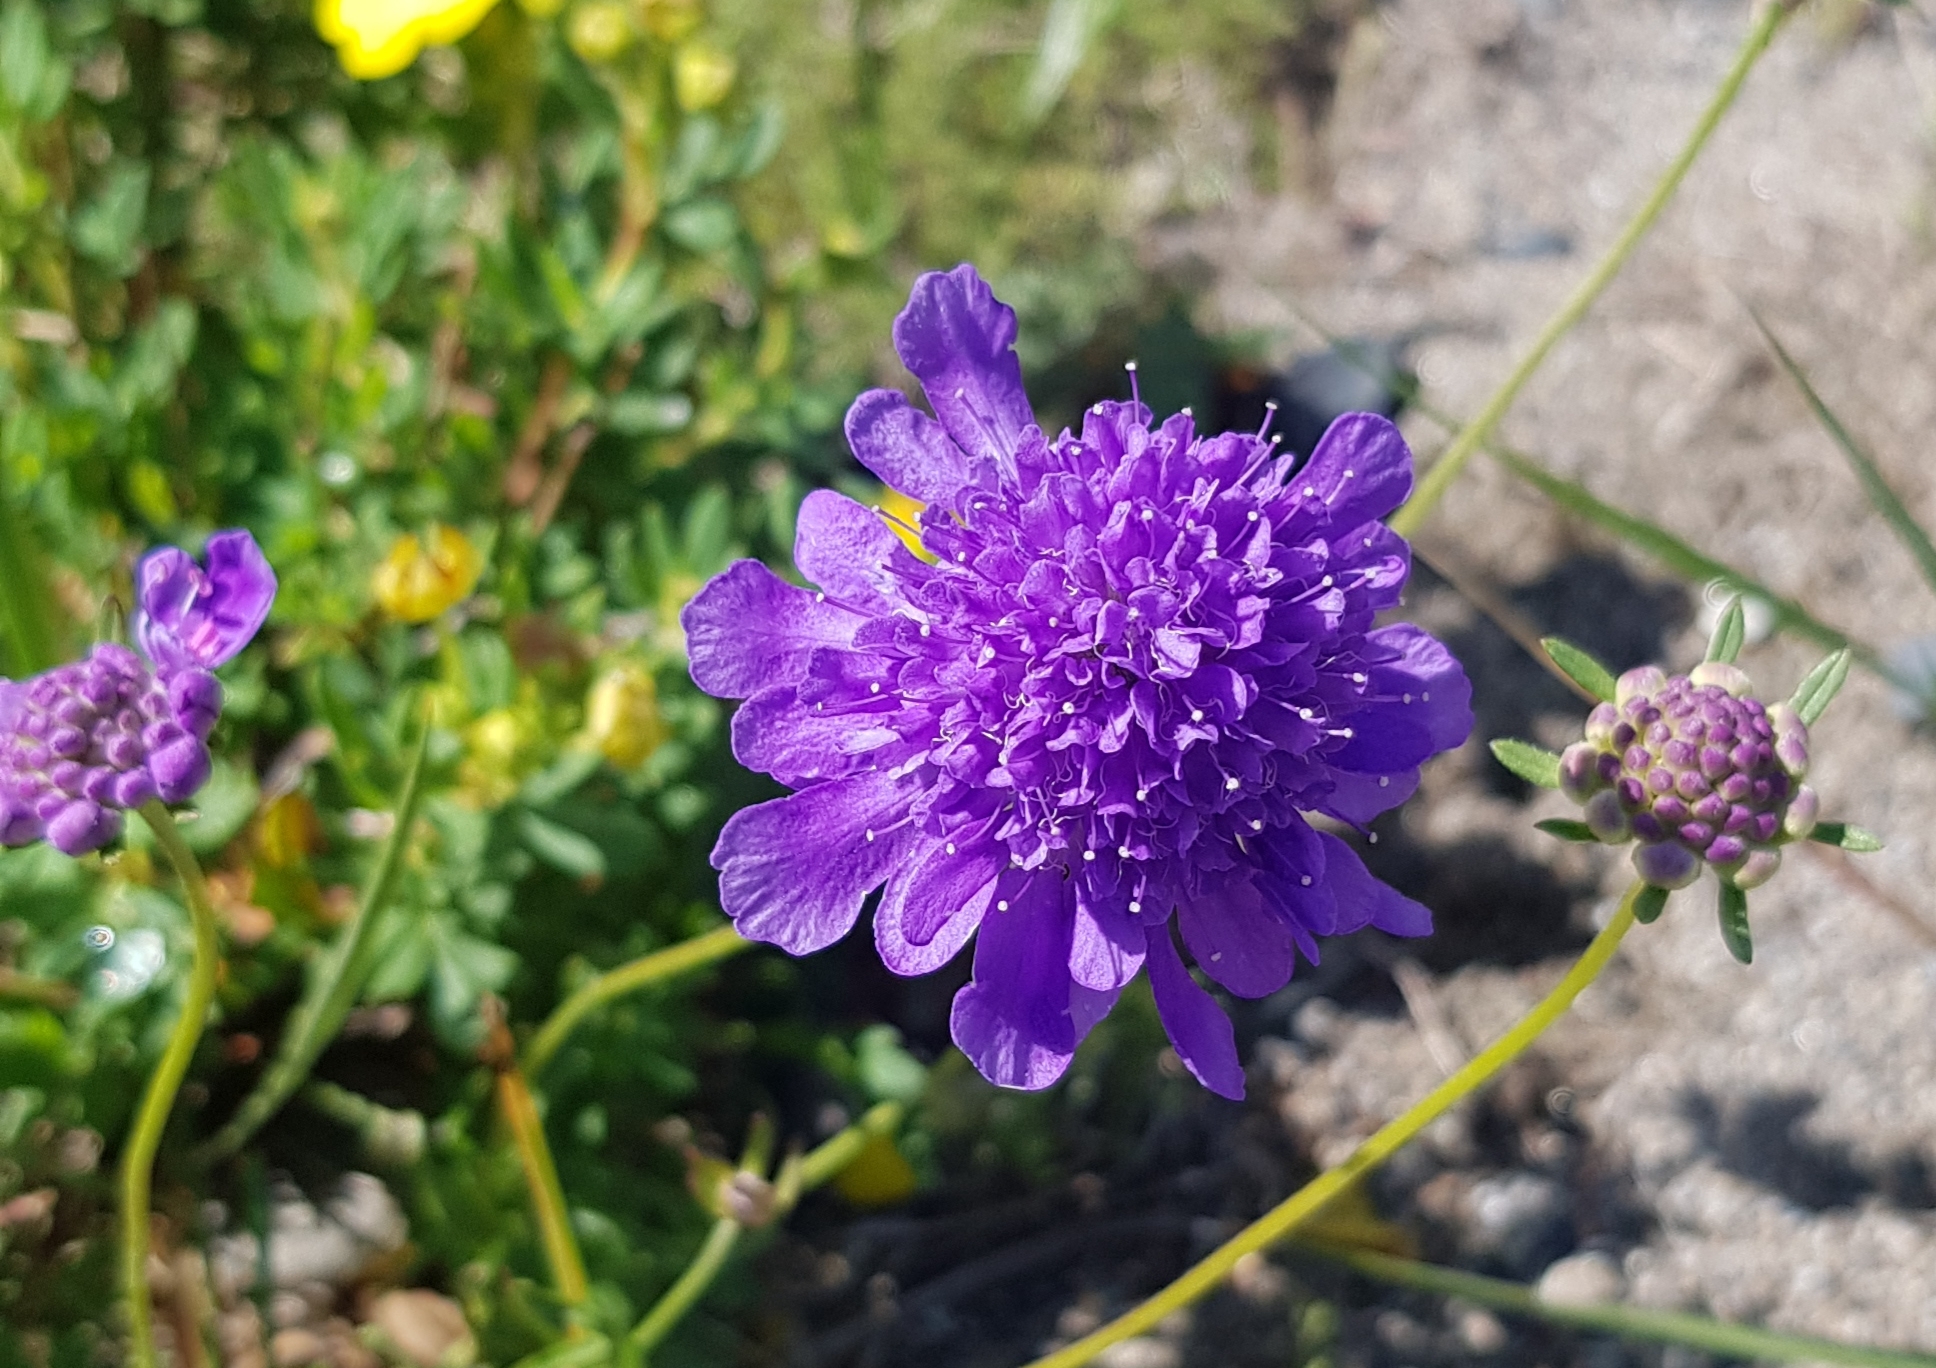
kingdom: Plantae
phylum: Tracheophyta
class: Magnoliopsida
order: Dipsacales
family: Caprifoliaceae
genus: Scabiosa
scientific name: Scabiosa comosa
